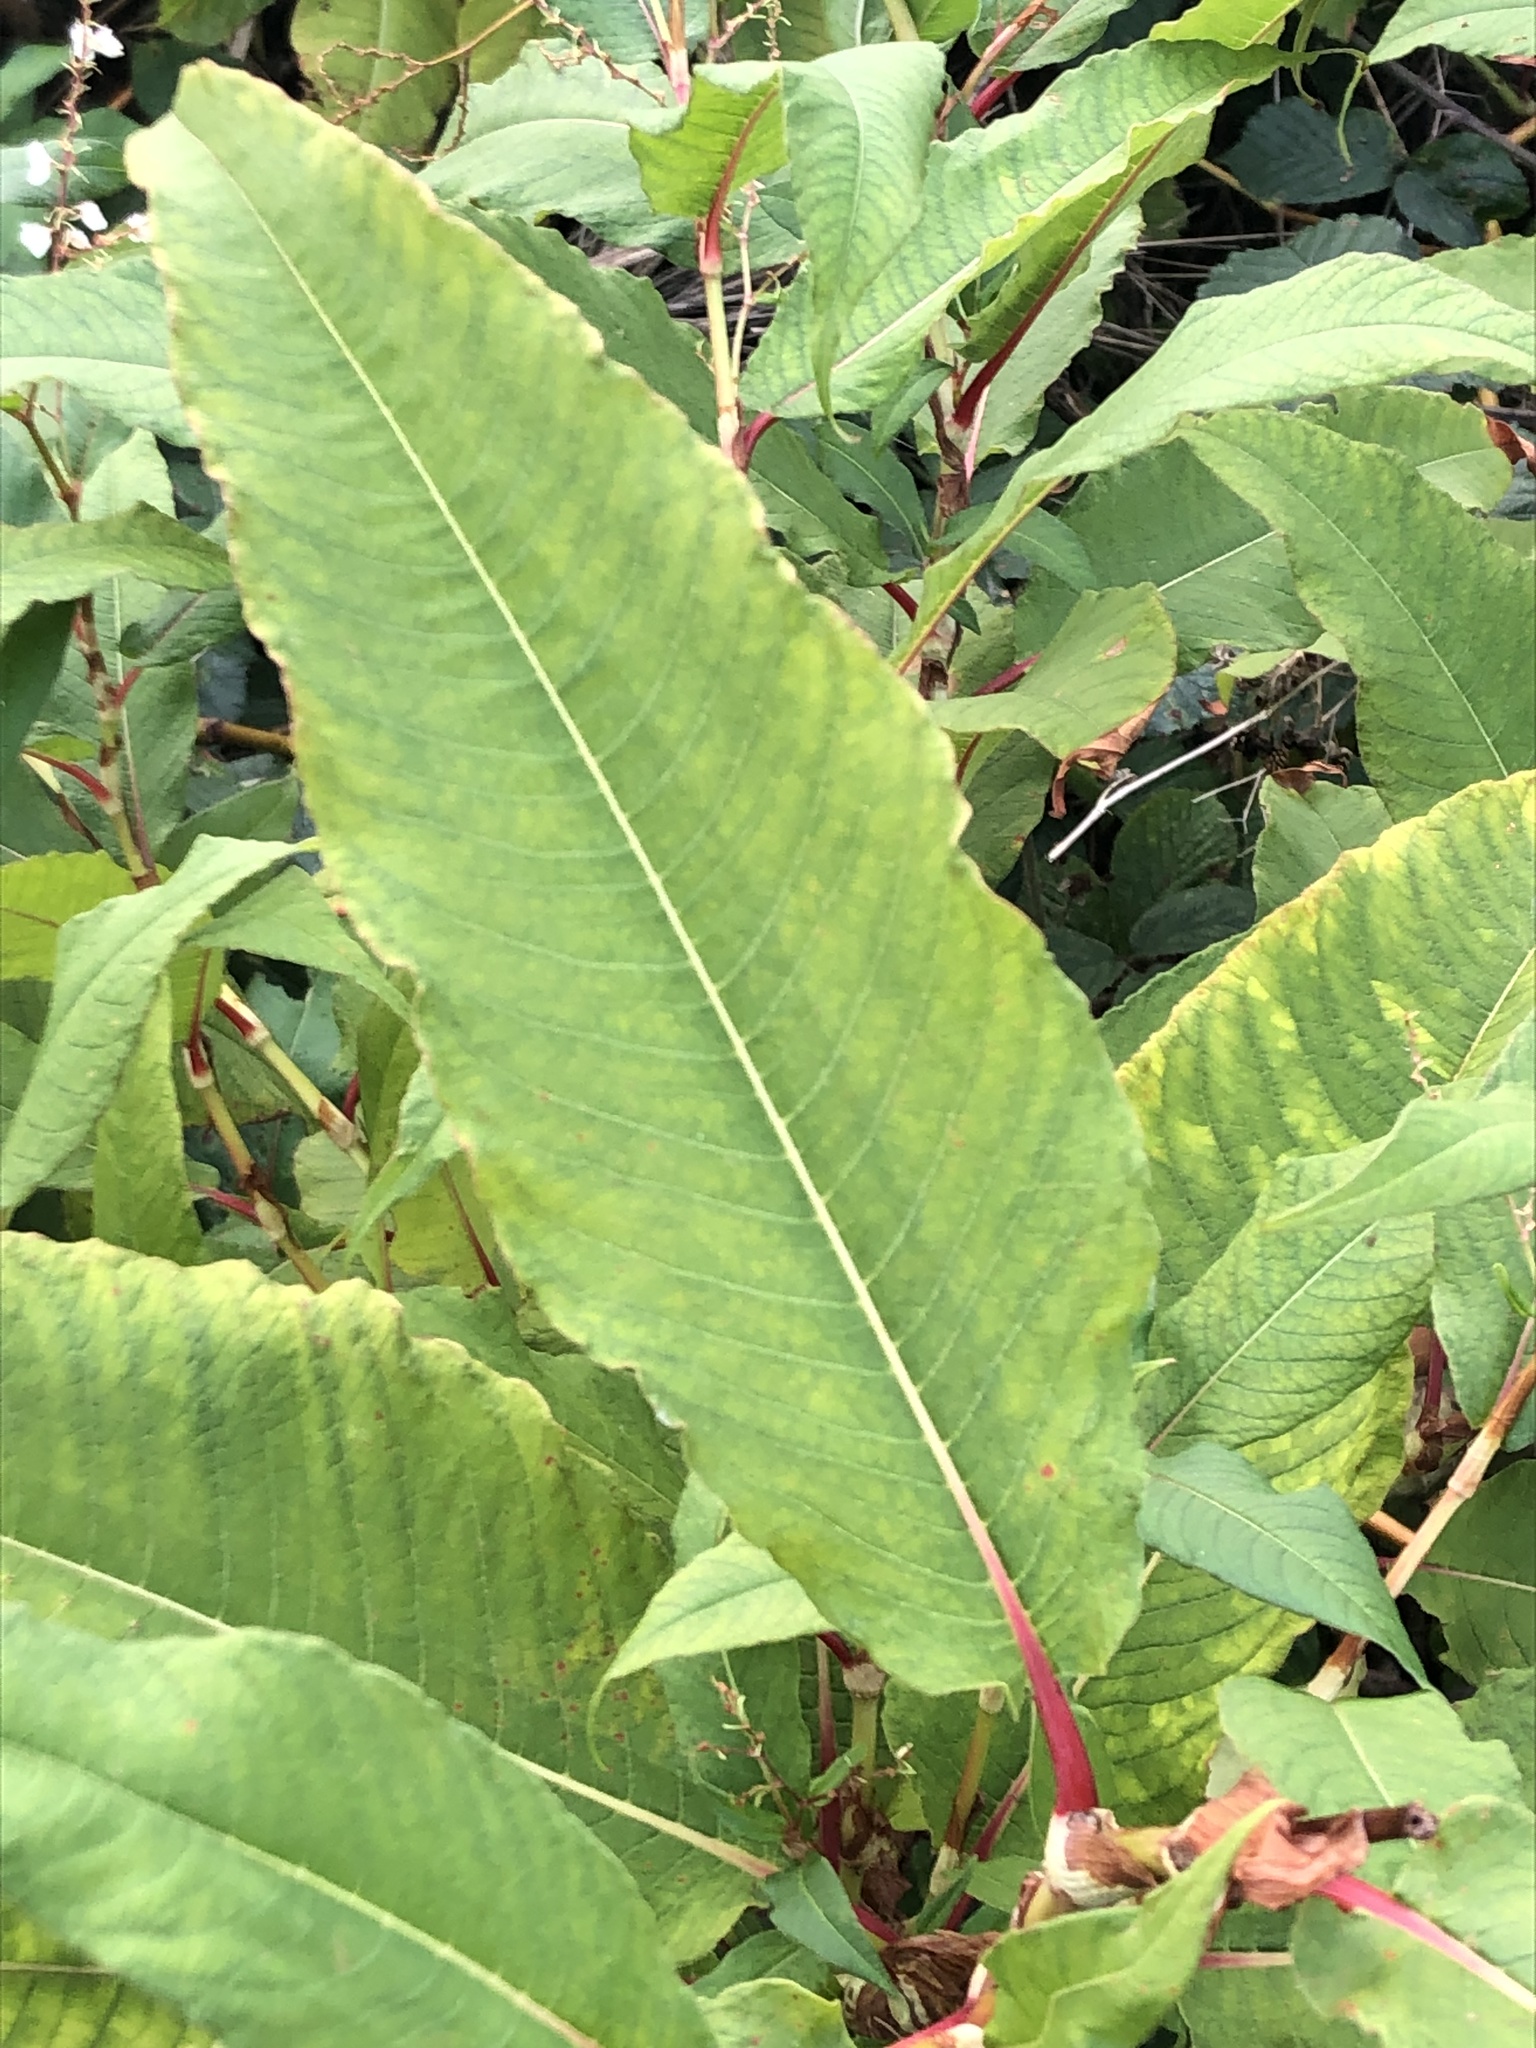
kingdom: Plantae
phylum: Tracheophyta
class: Magnoliopsida
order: Caryophyllales
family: Polygonaceae
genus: Koenigia
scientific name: Koenigia polystachya
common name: Himalayan knotweed
